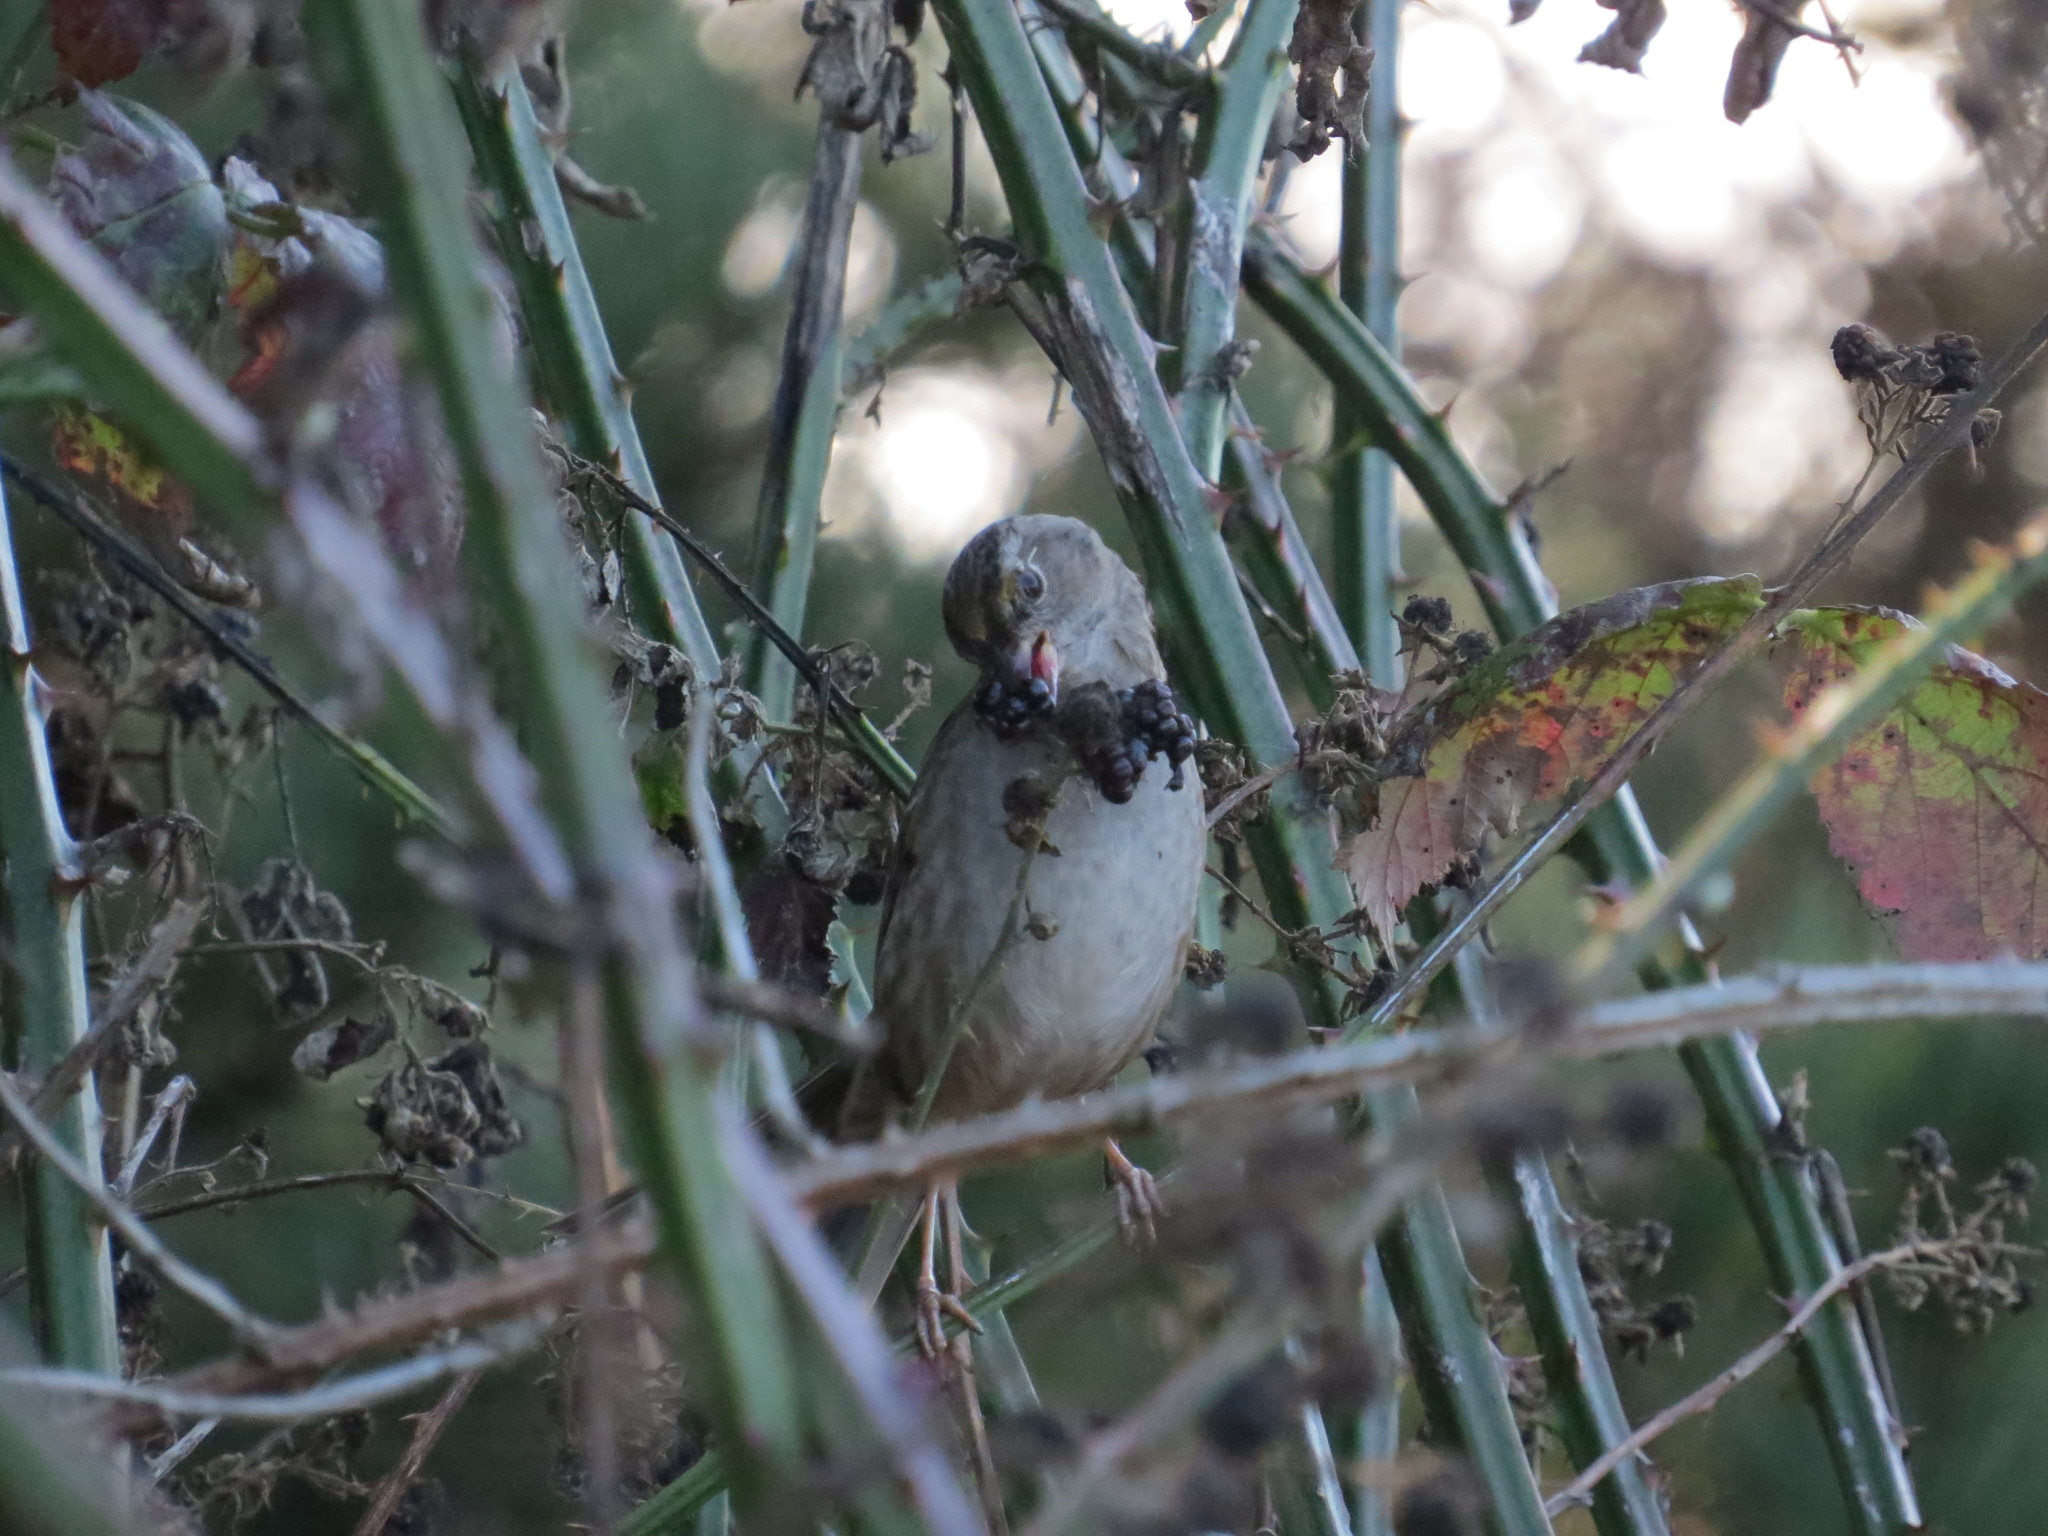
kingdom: Animalia
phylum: Chordata
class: Aves
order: Passeriformes
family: Passerellidae
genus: Zonotrichia
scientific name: Zonotrichia atricapilla
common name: Golden-crowned sparrow
